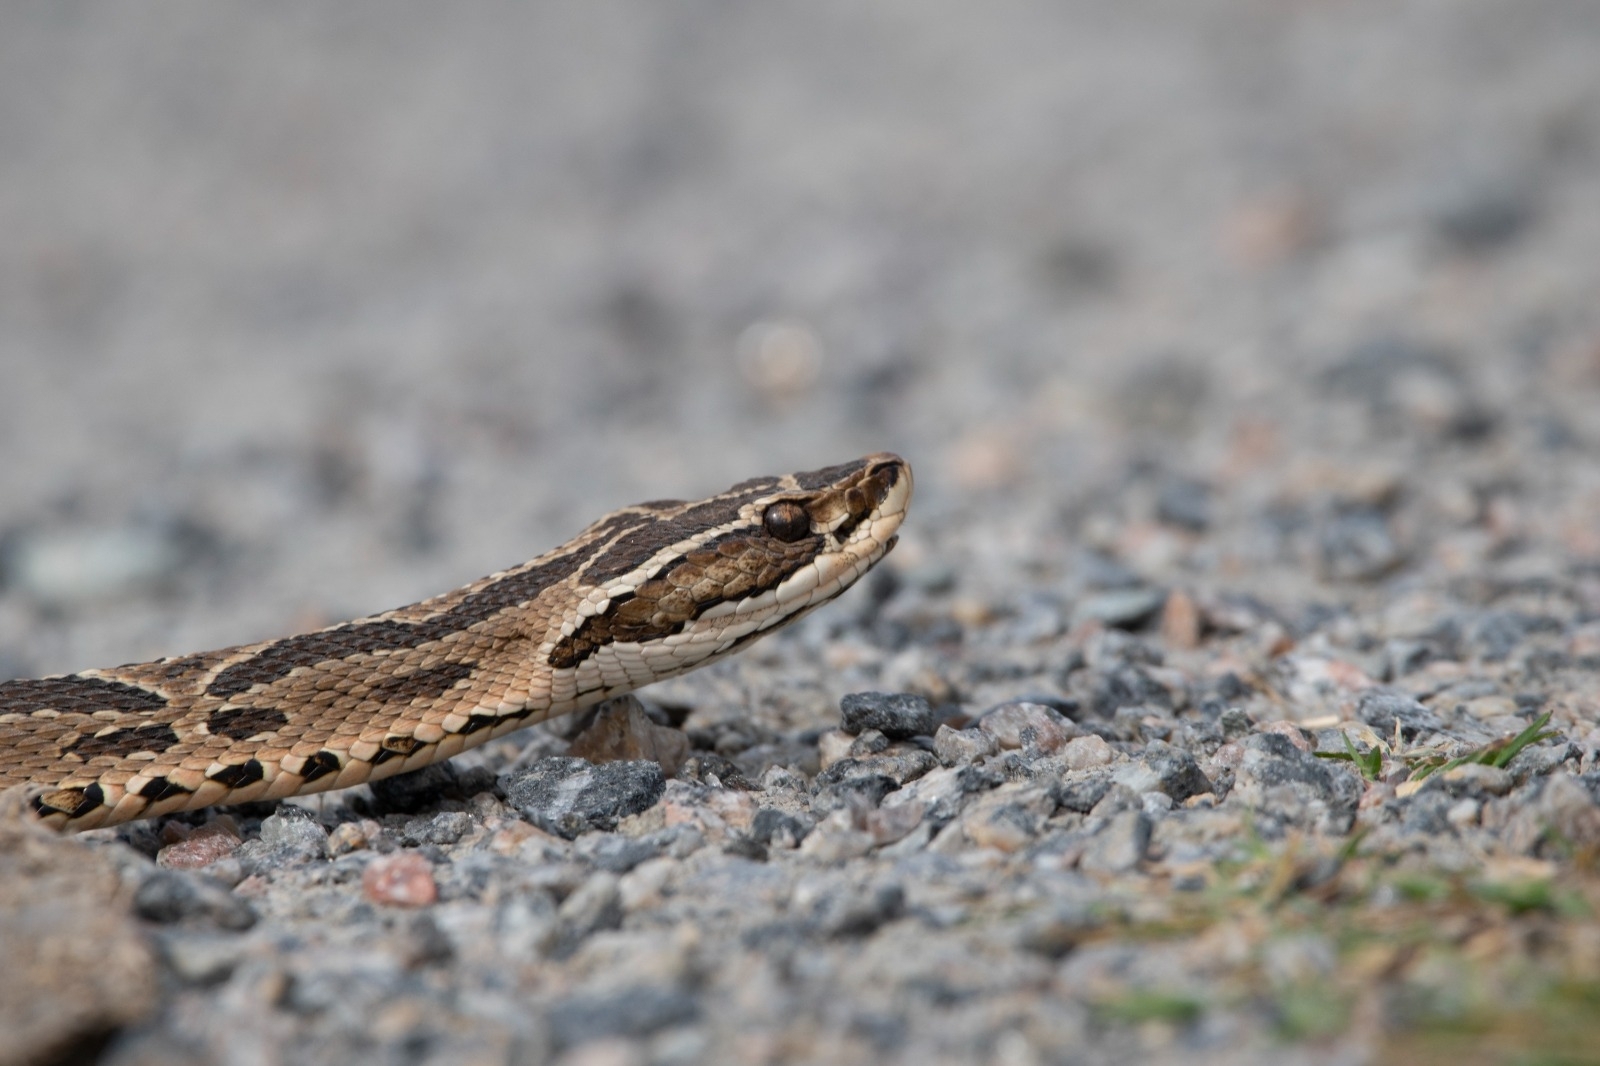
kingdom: Animalia
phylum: Chordata
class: Squamata
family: Viperidae
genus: Bothrops
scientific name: Bothrops alternatus
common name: Urutu
